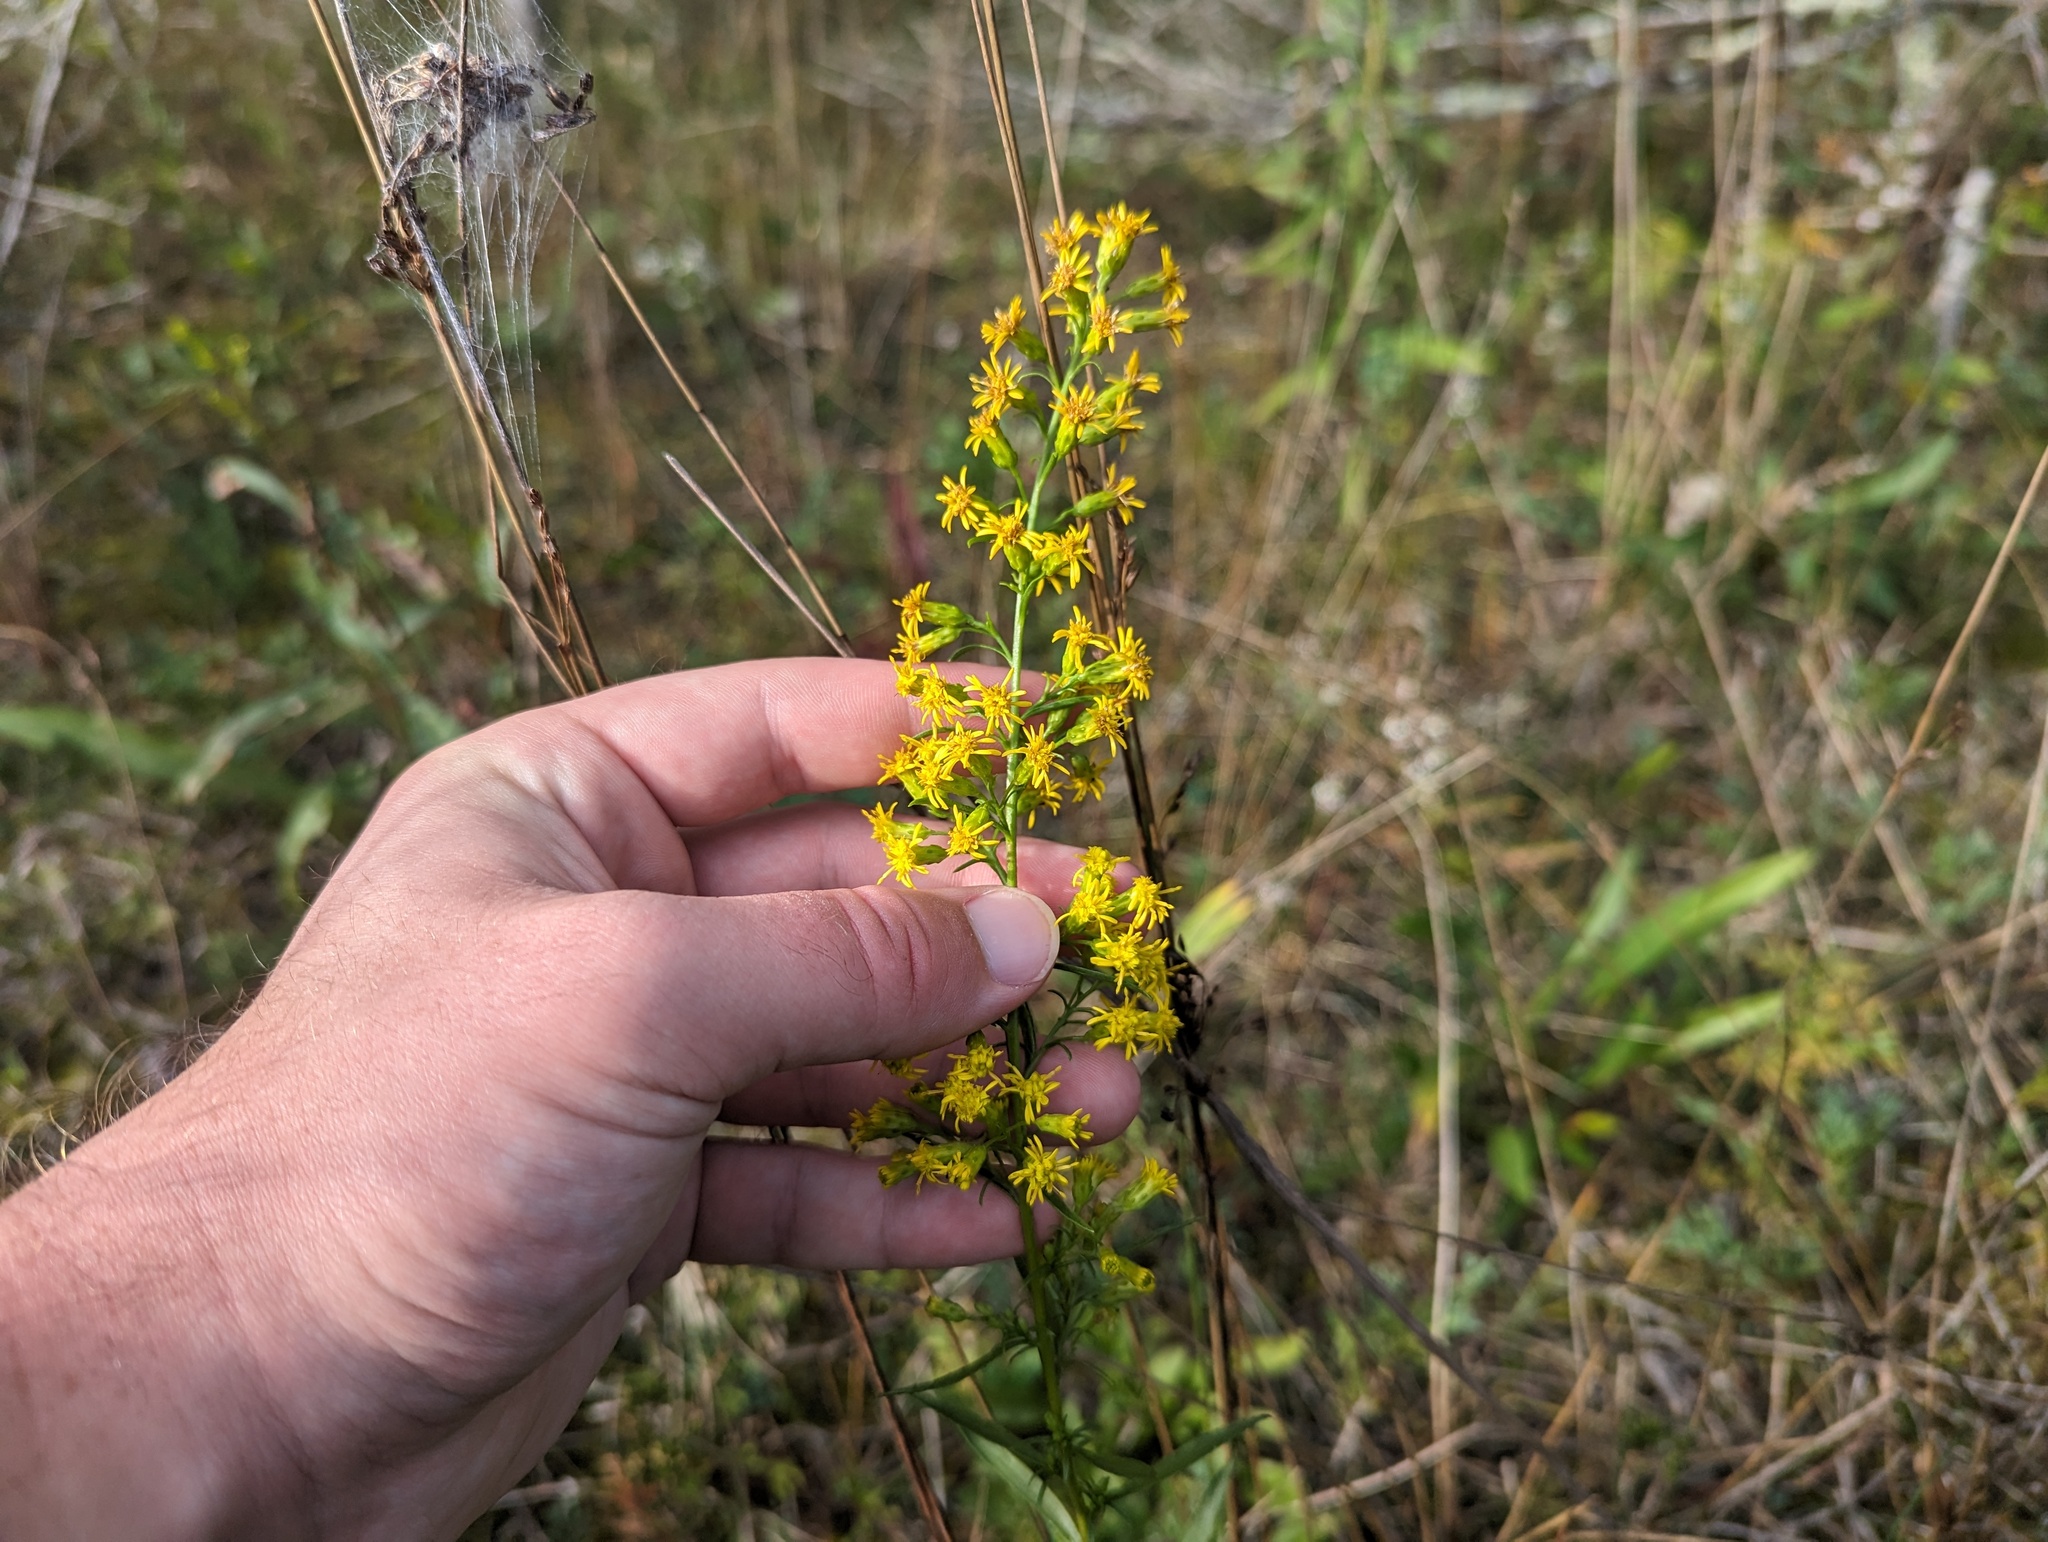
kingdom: Plantae
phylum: Tracheophyta
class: Magnoliopsida
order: Asterales
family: Asteraceae
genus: Solidago
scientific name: Solidago gillmanii
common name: Gillman's goldenrod
